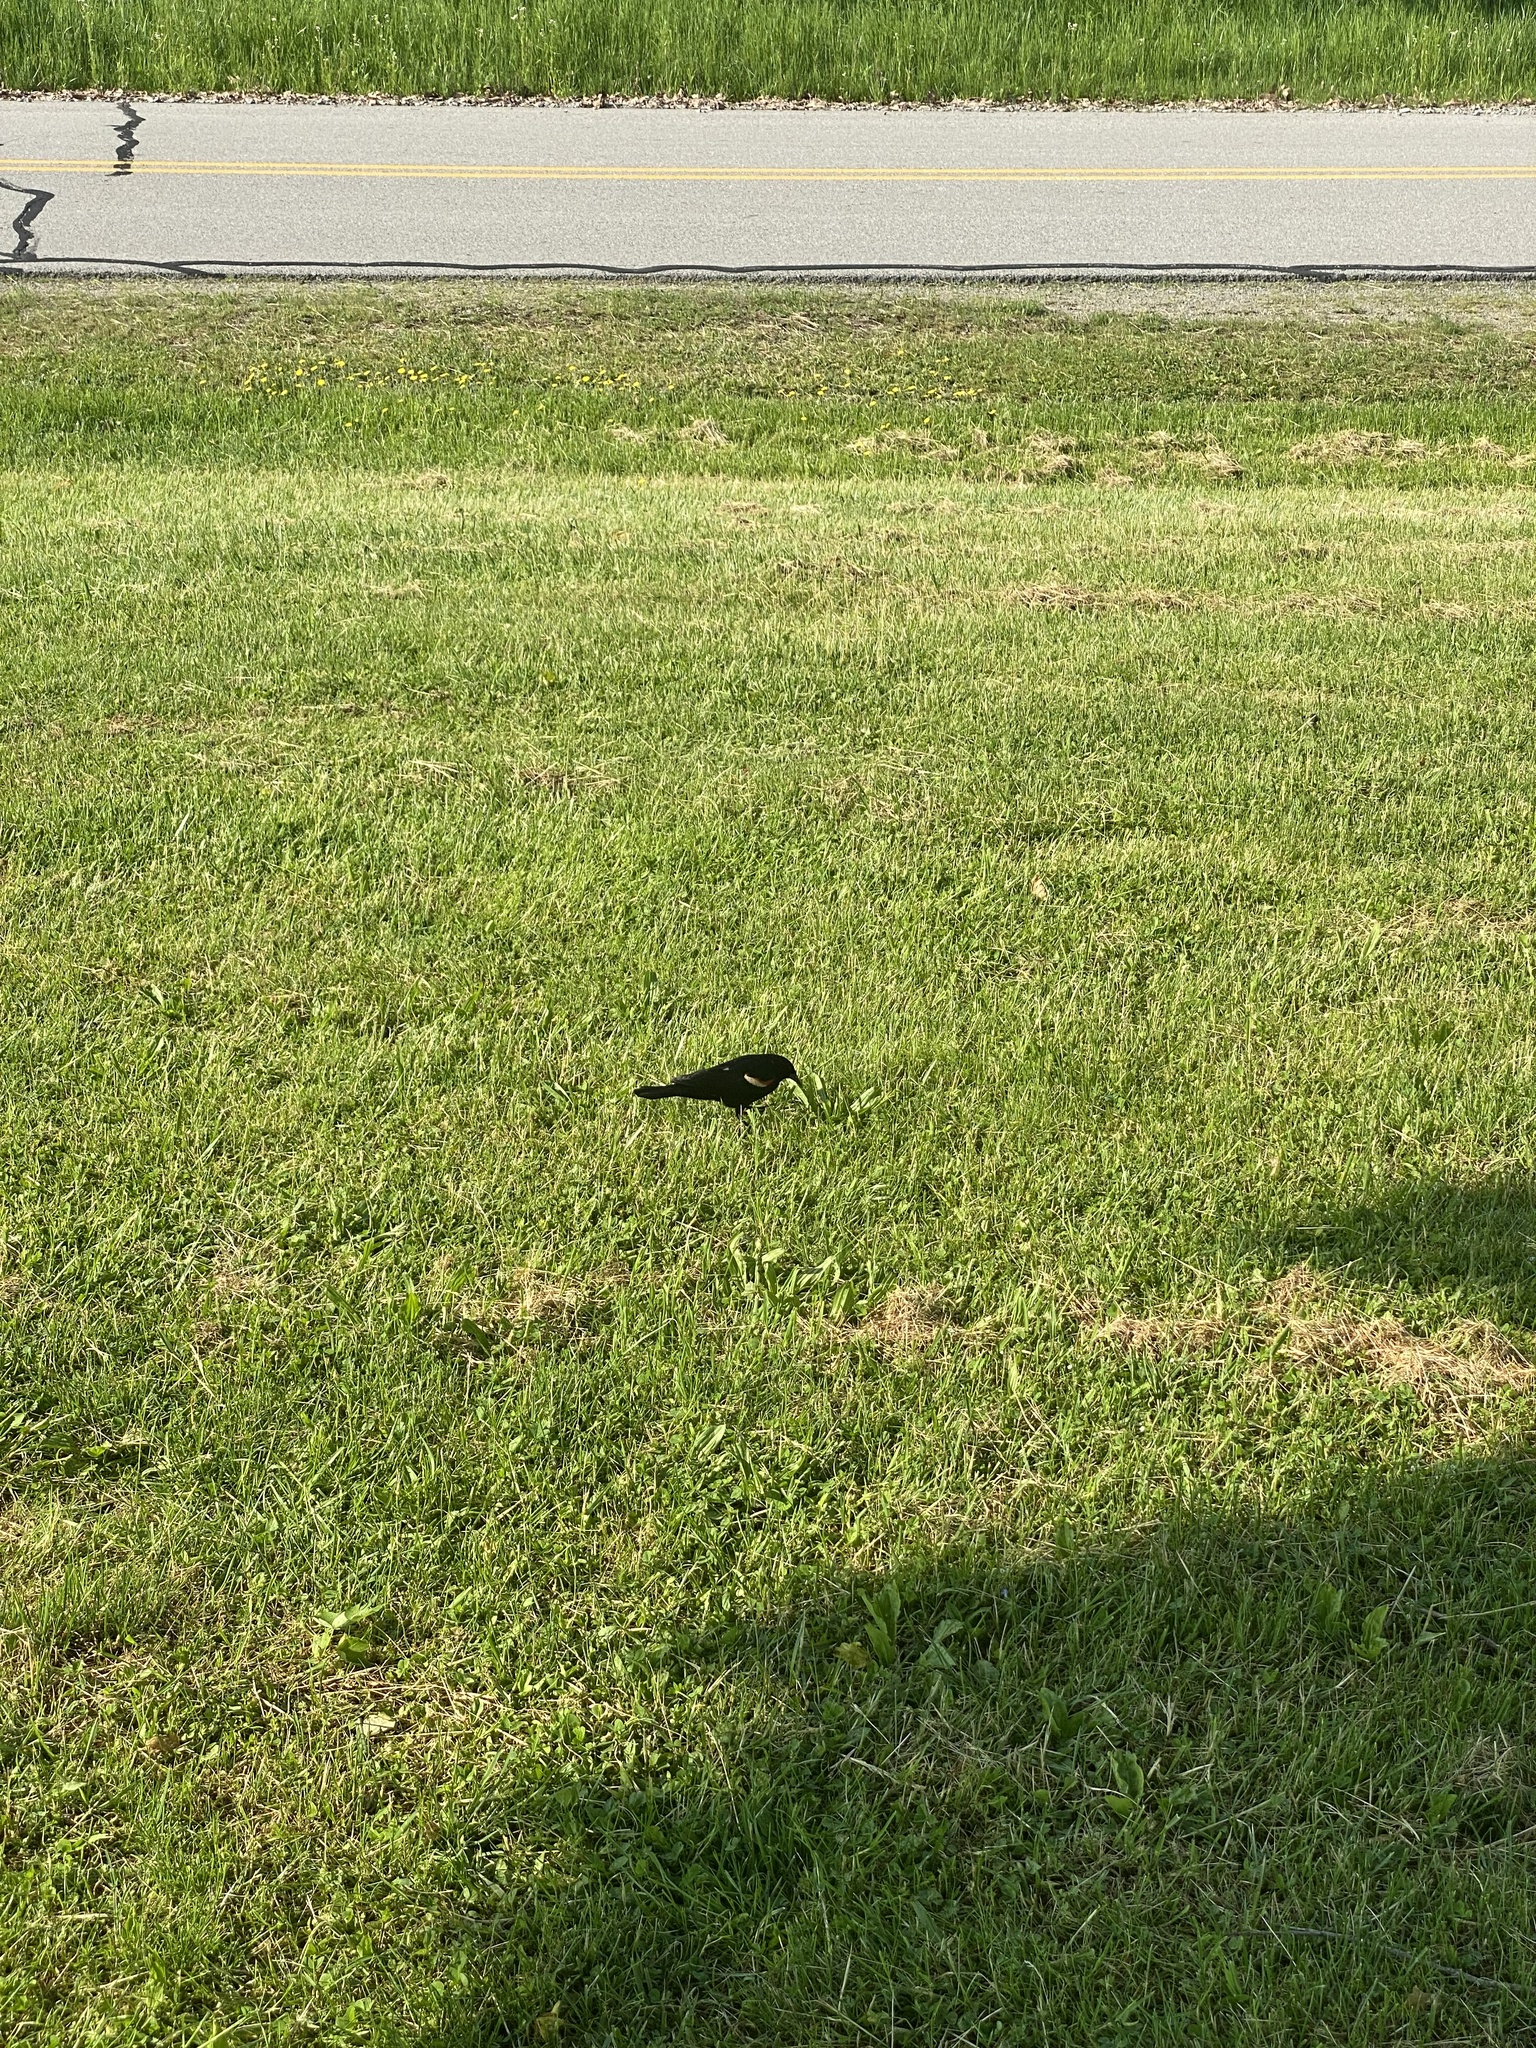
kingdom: Animalia
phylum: Chordata
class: Aves
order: Passeriformes
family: Icteridae
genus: Agelaius
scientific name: Agelaius phoeniceus
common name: Red-winged blackbird
